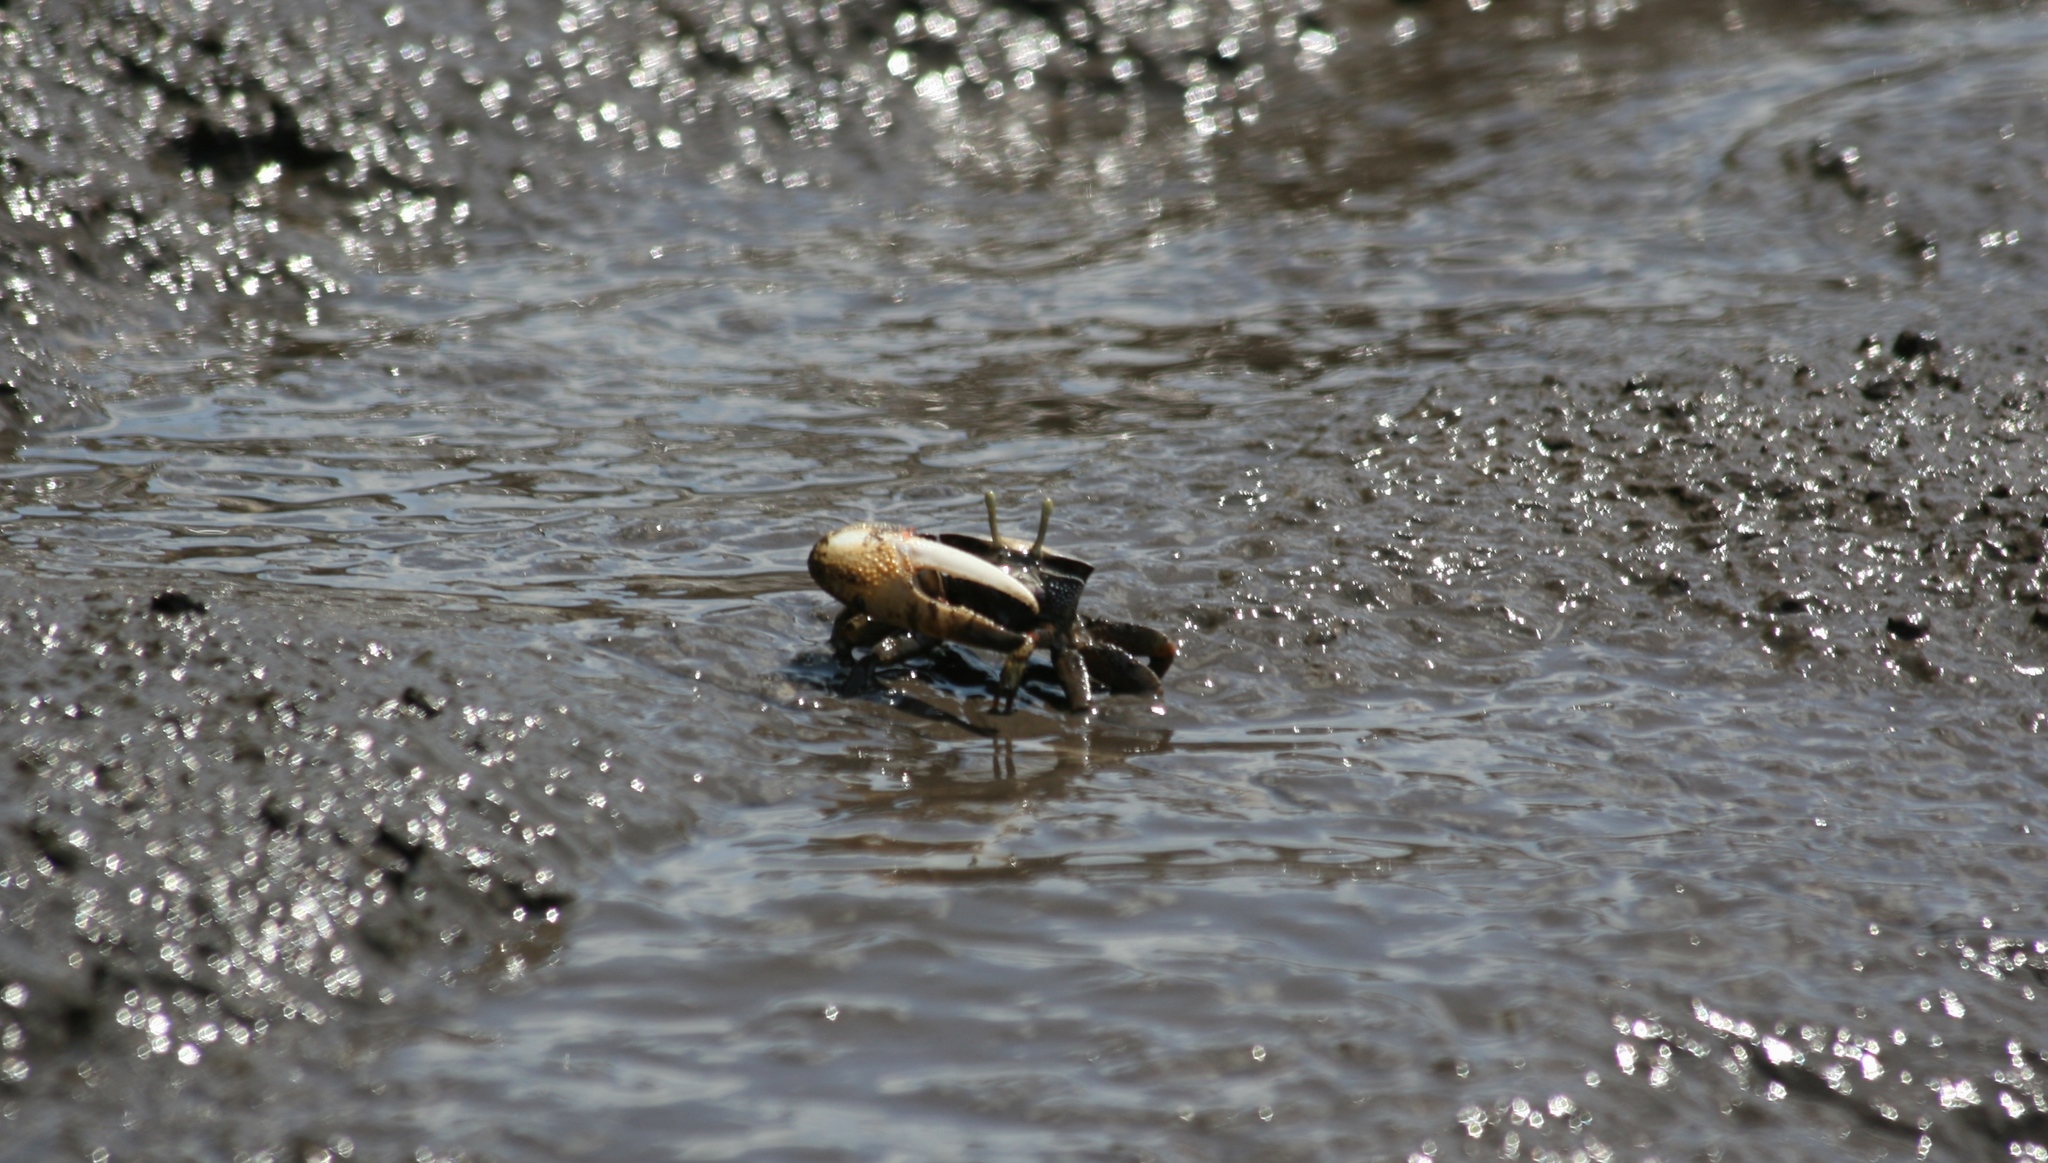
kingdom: Animalia
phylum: Arthropoda
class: Malacostraca
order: Decapoda
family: Ocypodidae
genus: Afruca
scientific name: Afruca tangeri
